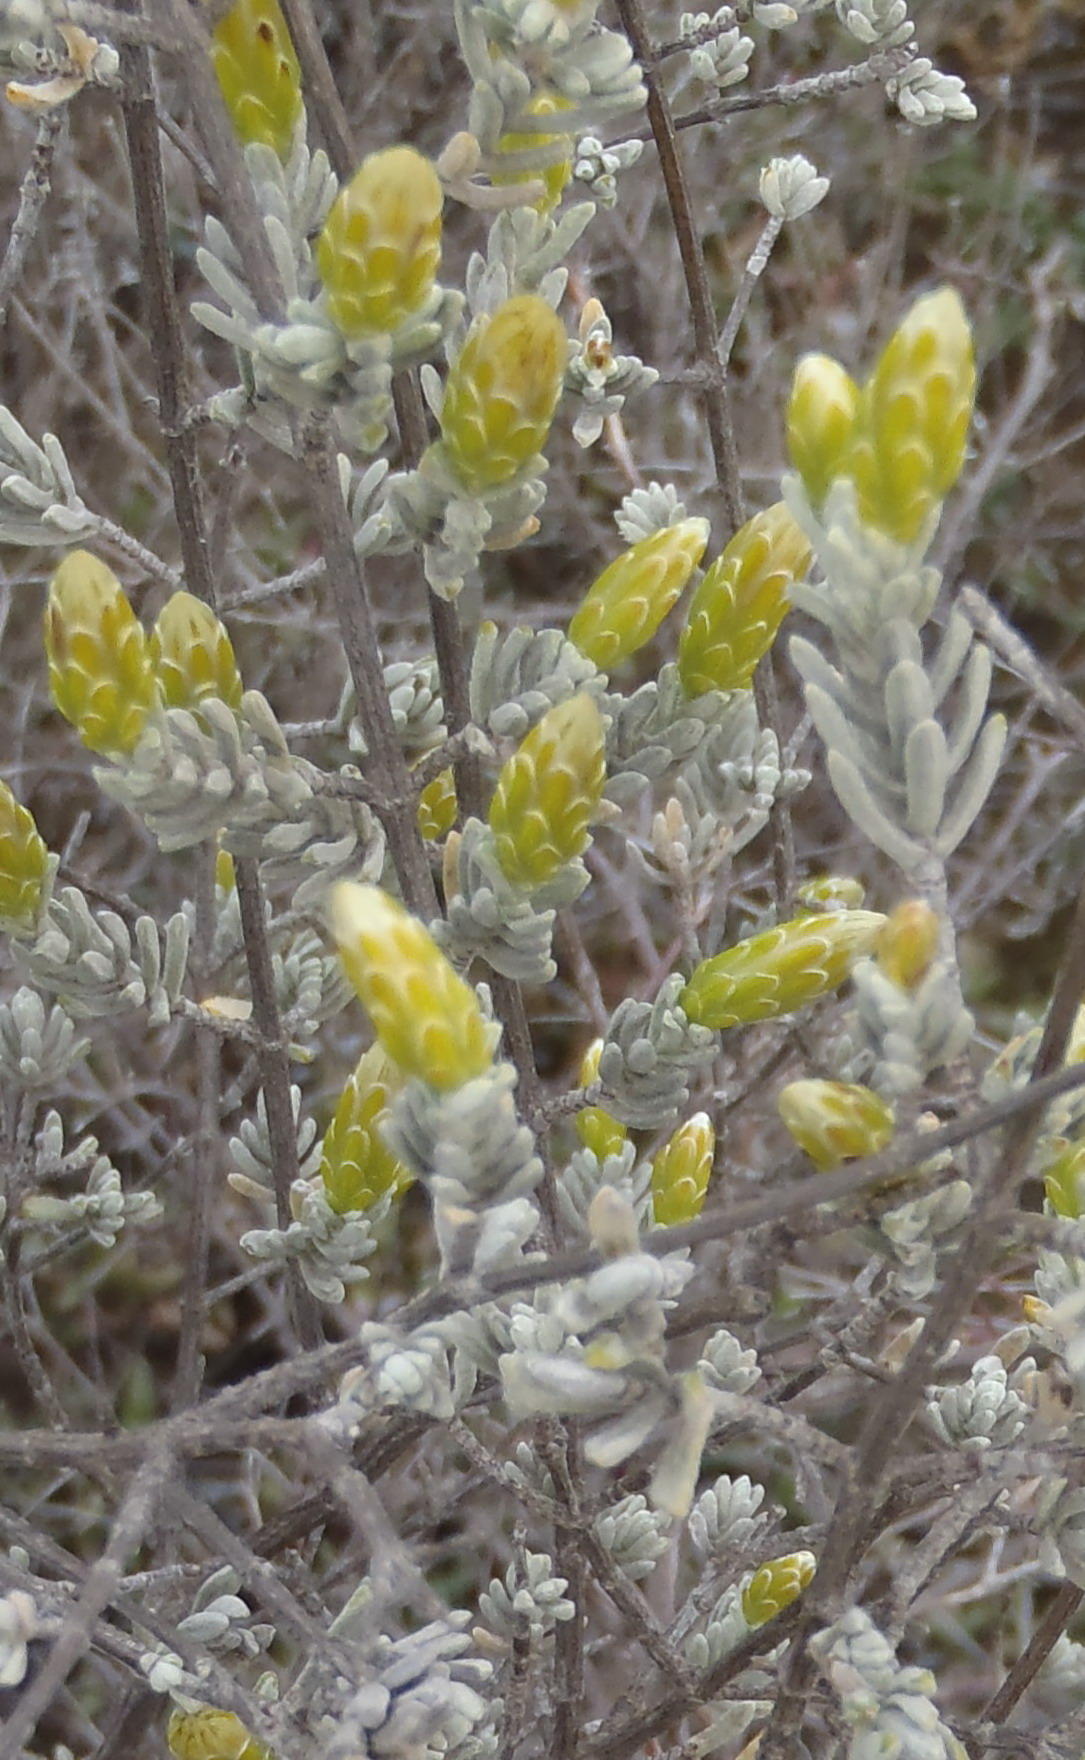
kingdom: Plantae
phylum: Tracheophyta
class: Magnoliopsida
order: Asterales
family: Asteraceae
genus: Pteronia
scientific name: Pteronia incana
